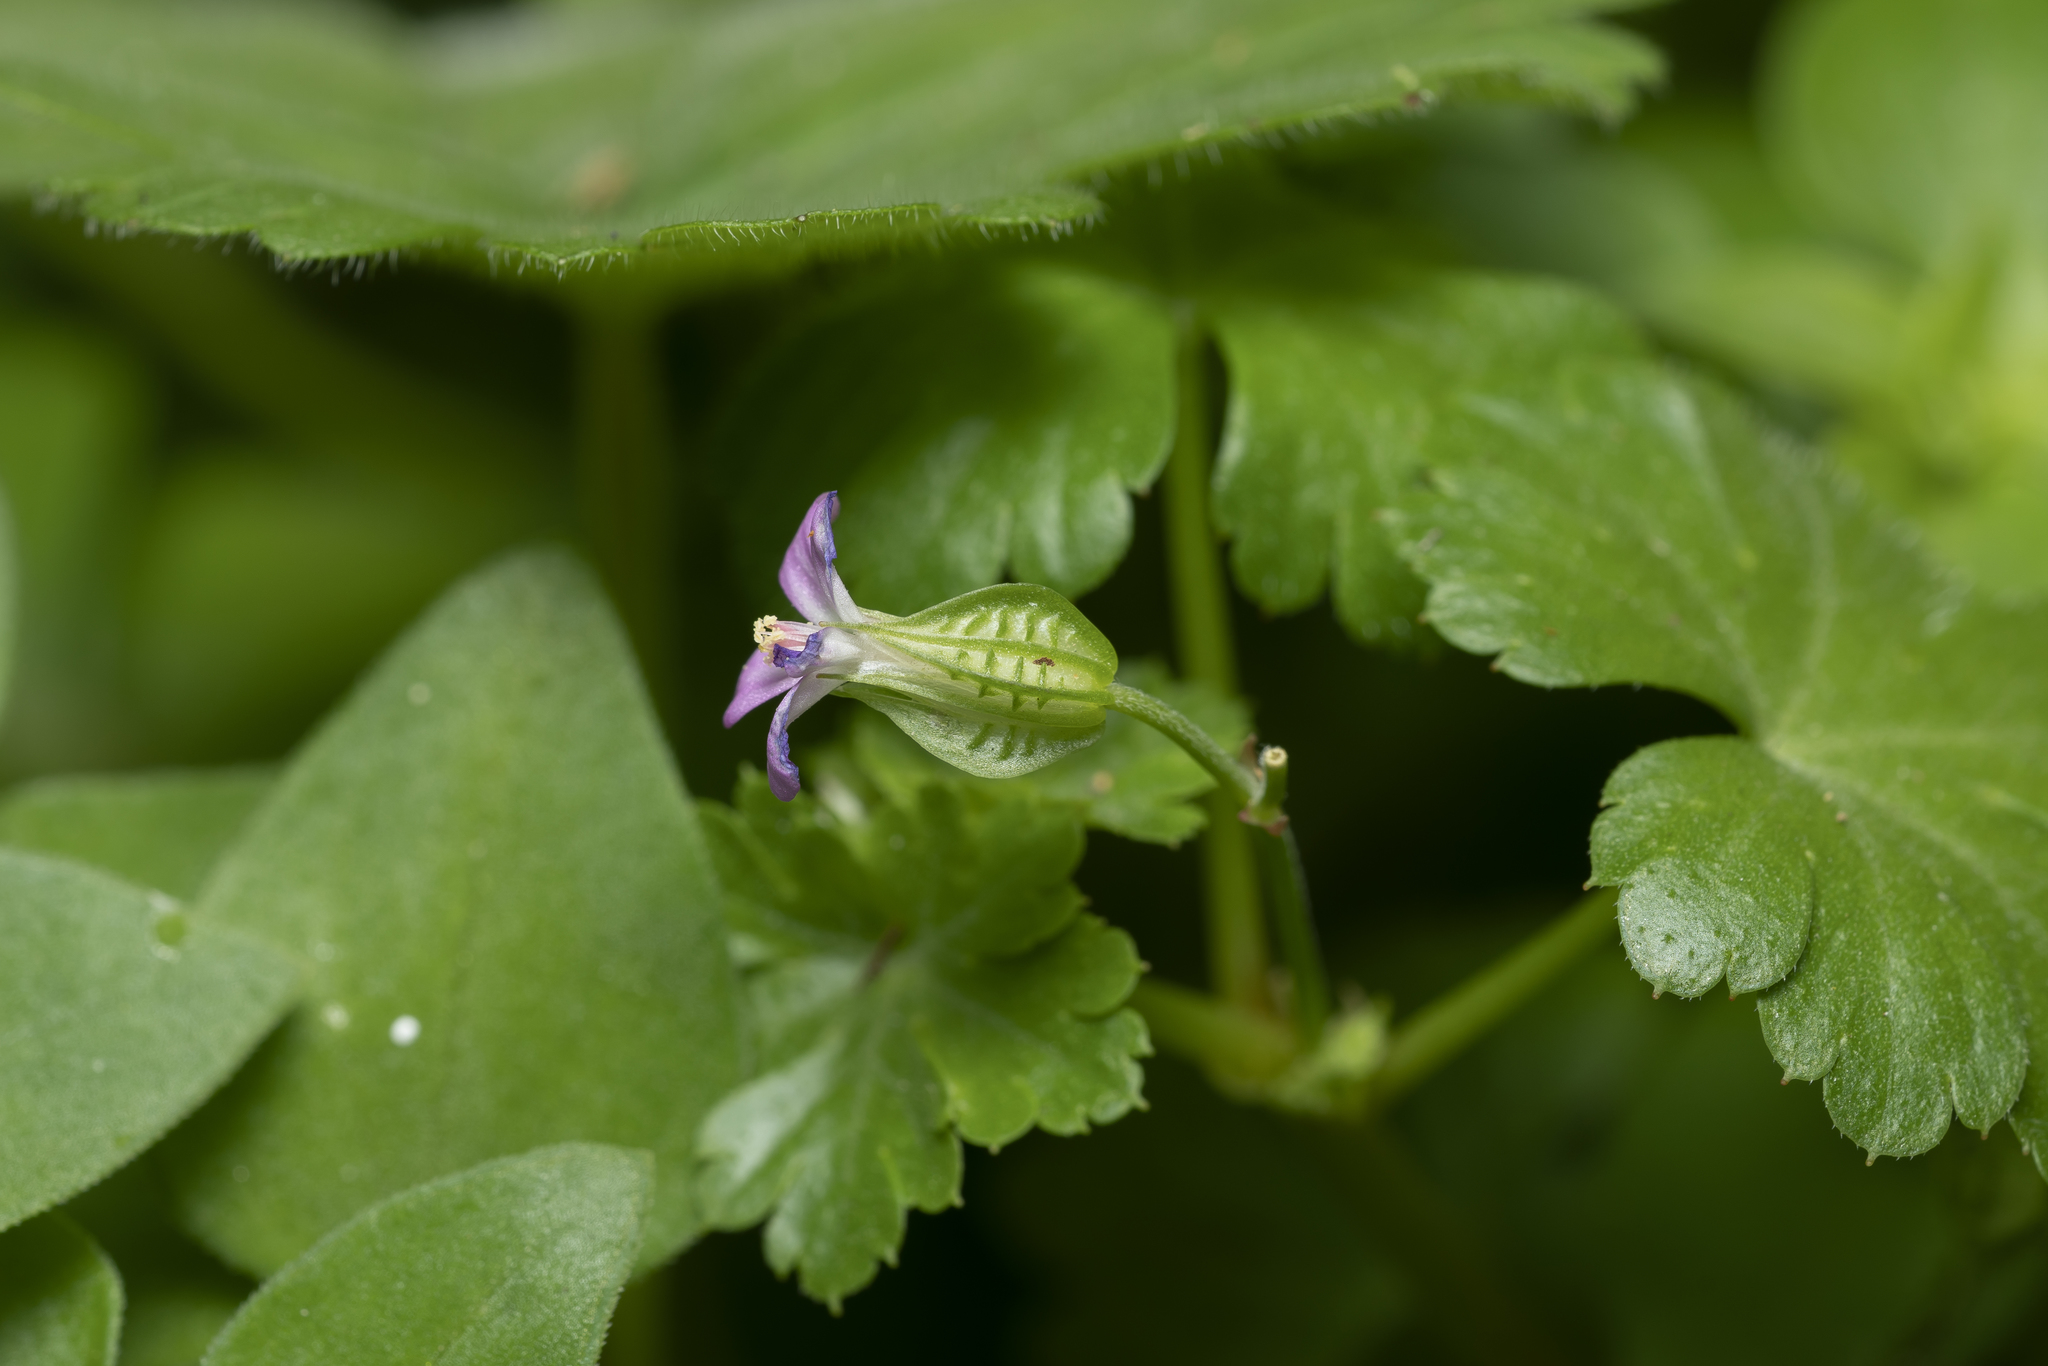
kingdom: Plantae
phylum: Tracheophyta
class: Magnoliopsida
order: Geraniales
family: Geraniaceae
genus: Geranium
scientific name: Geranium lucidum
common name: Shining crane's-bill
